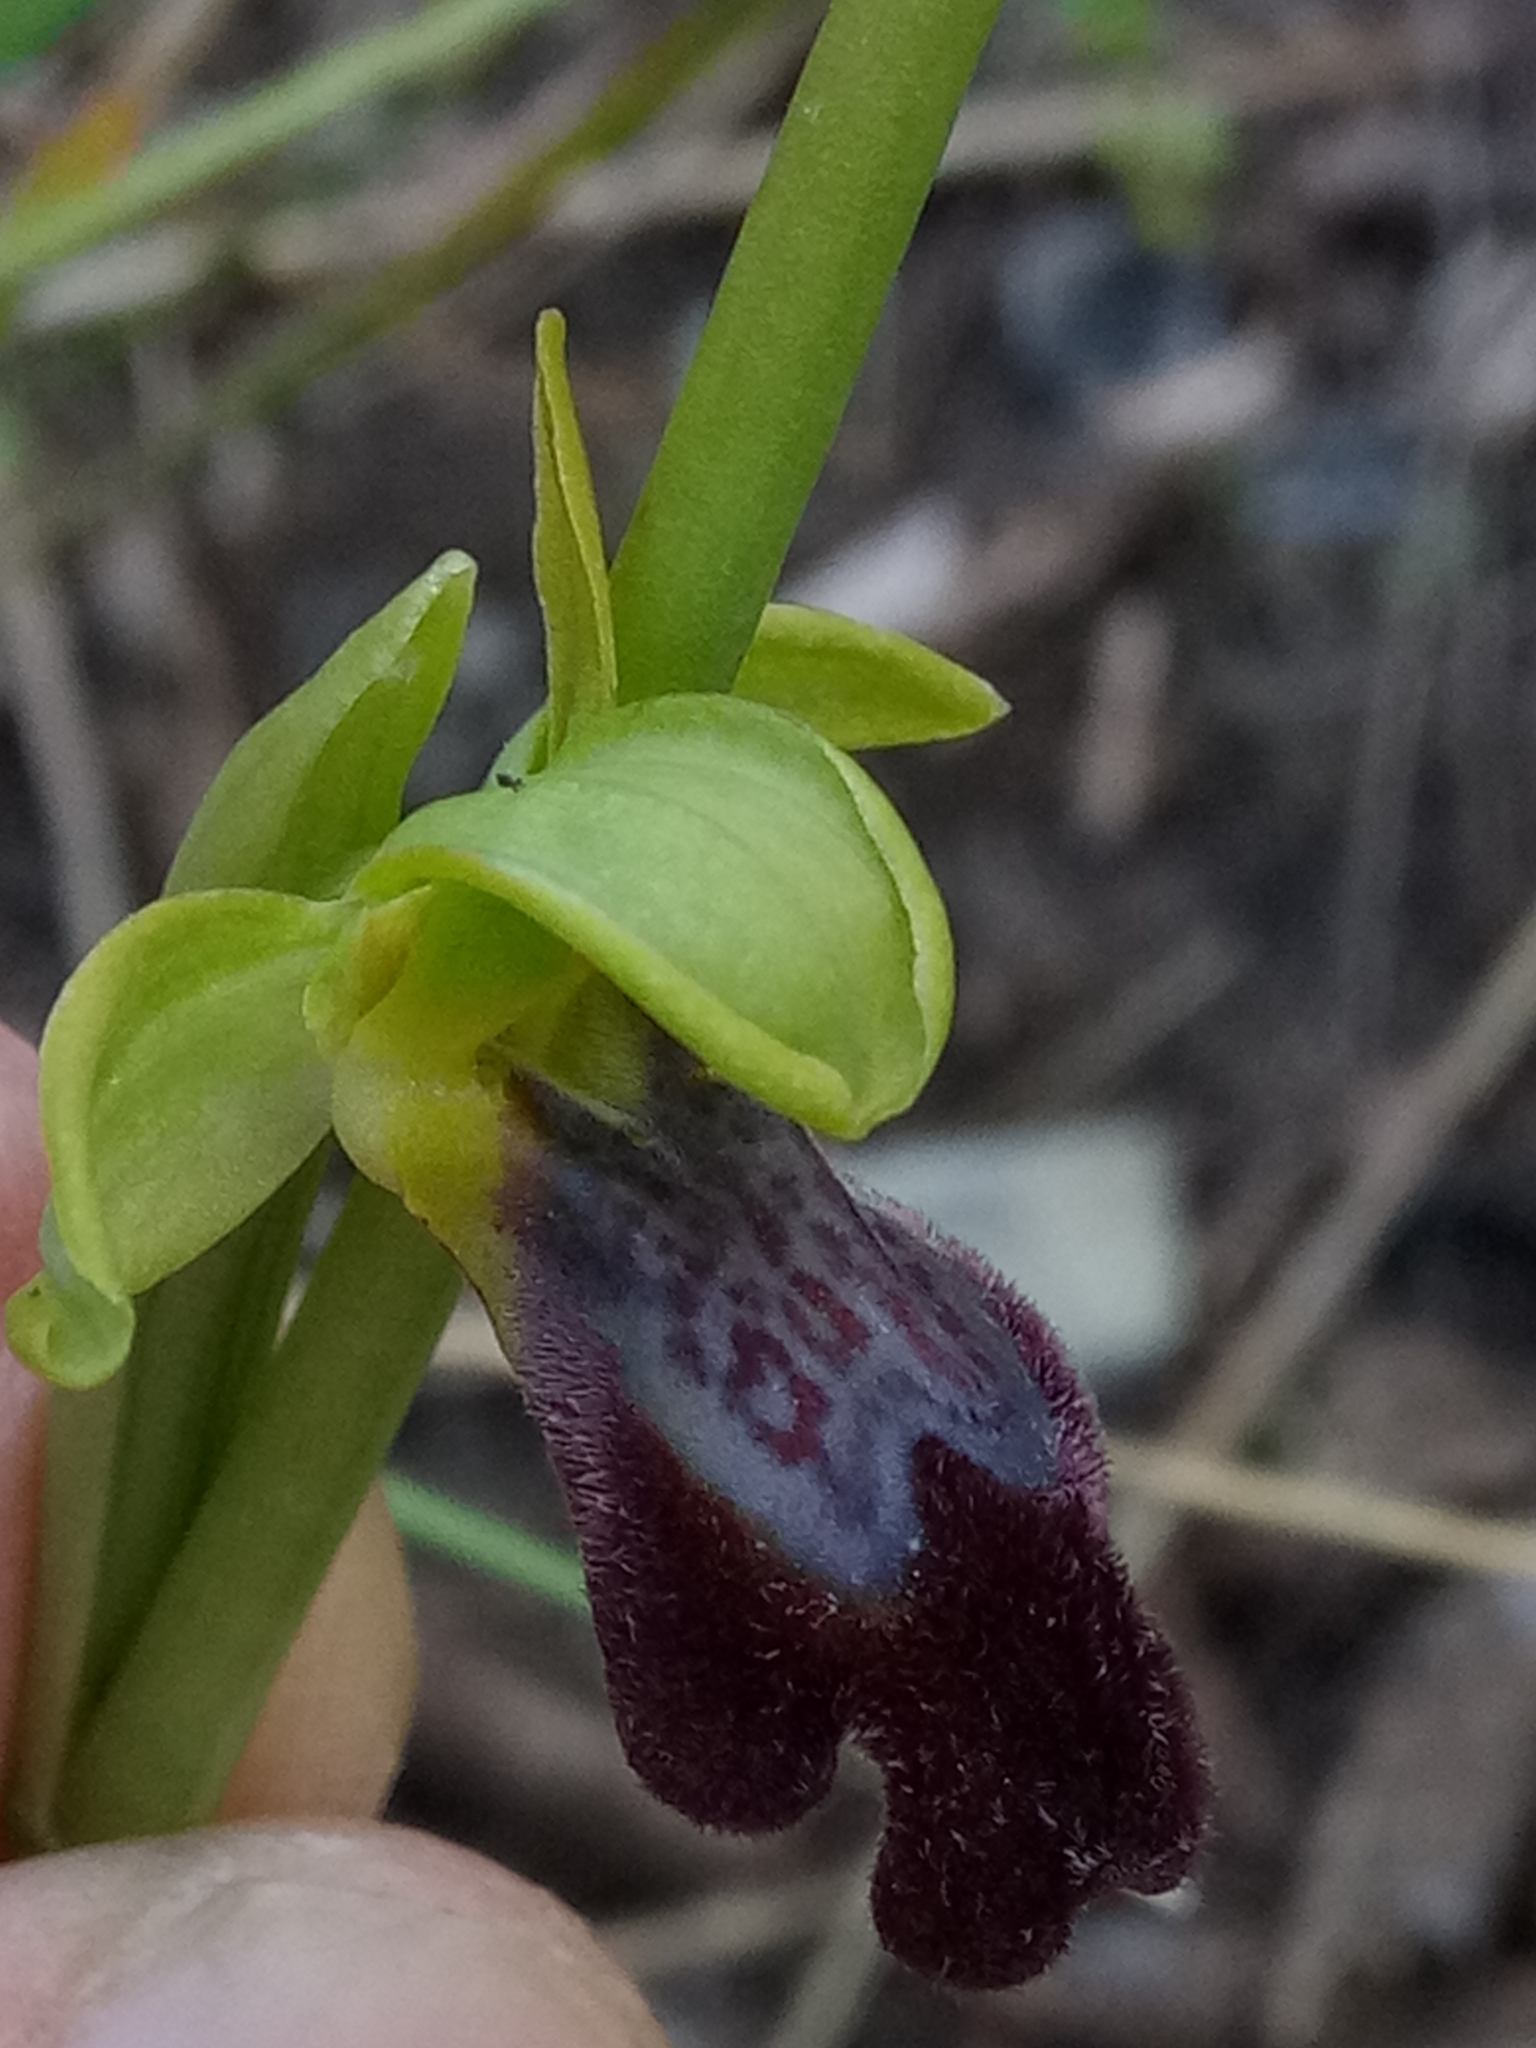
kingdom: Plantae
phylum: Tracheophyta
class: Liliopsida
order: Asparagales
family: Orchidaceae
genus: Ophrys
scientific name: Ophrys fusca
